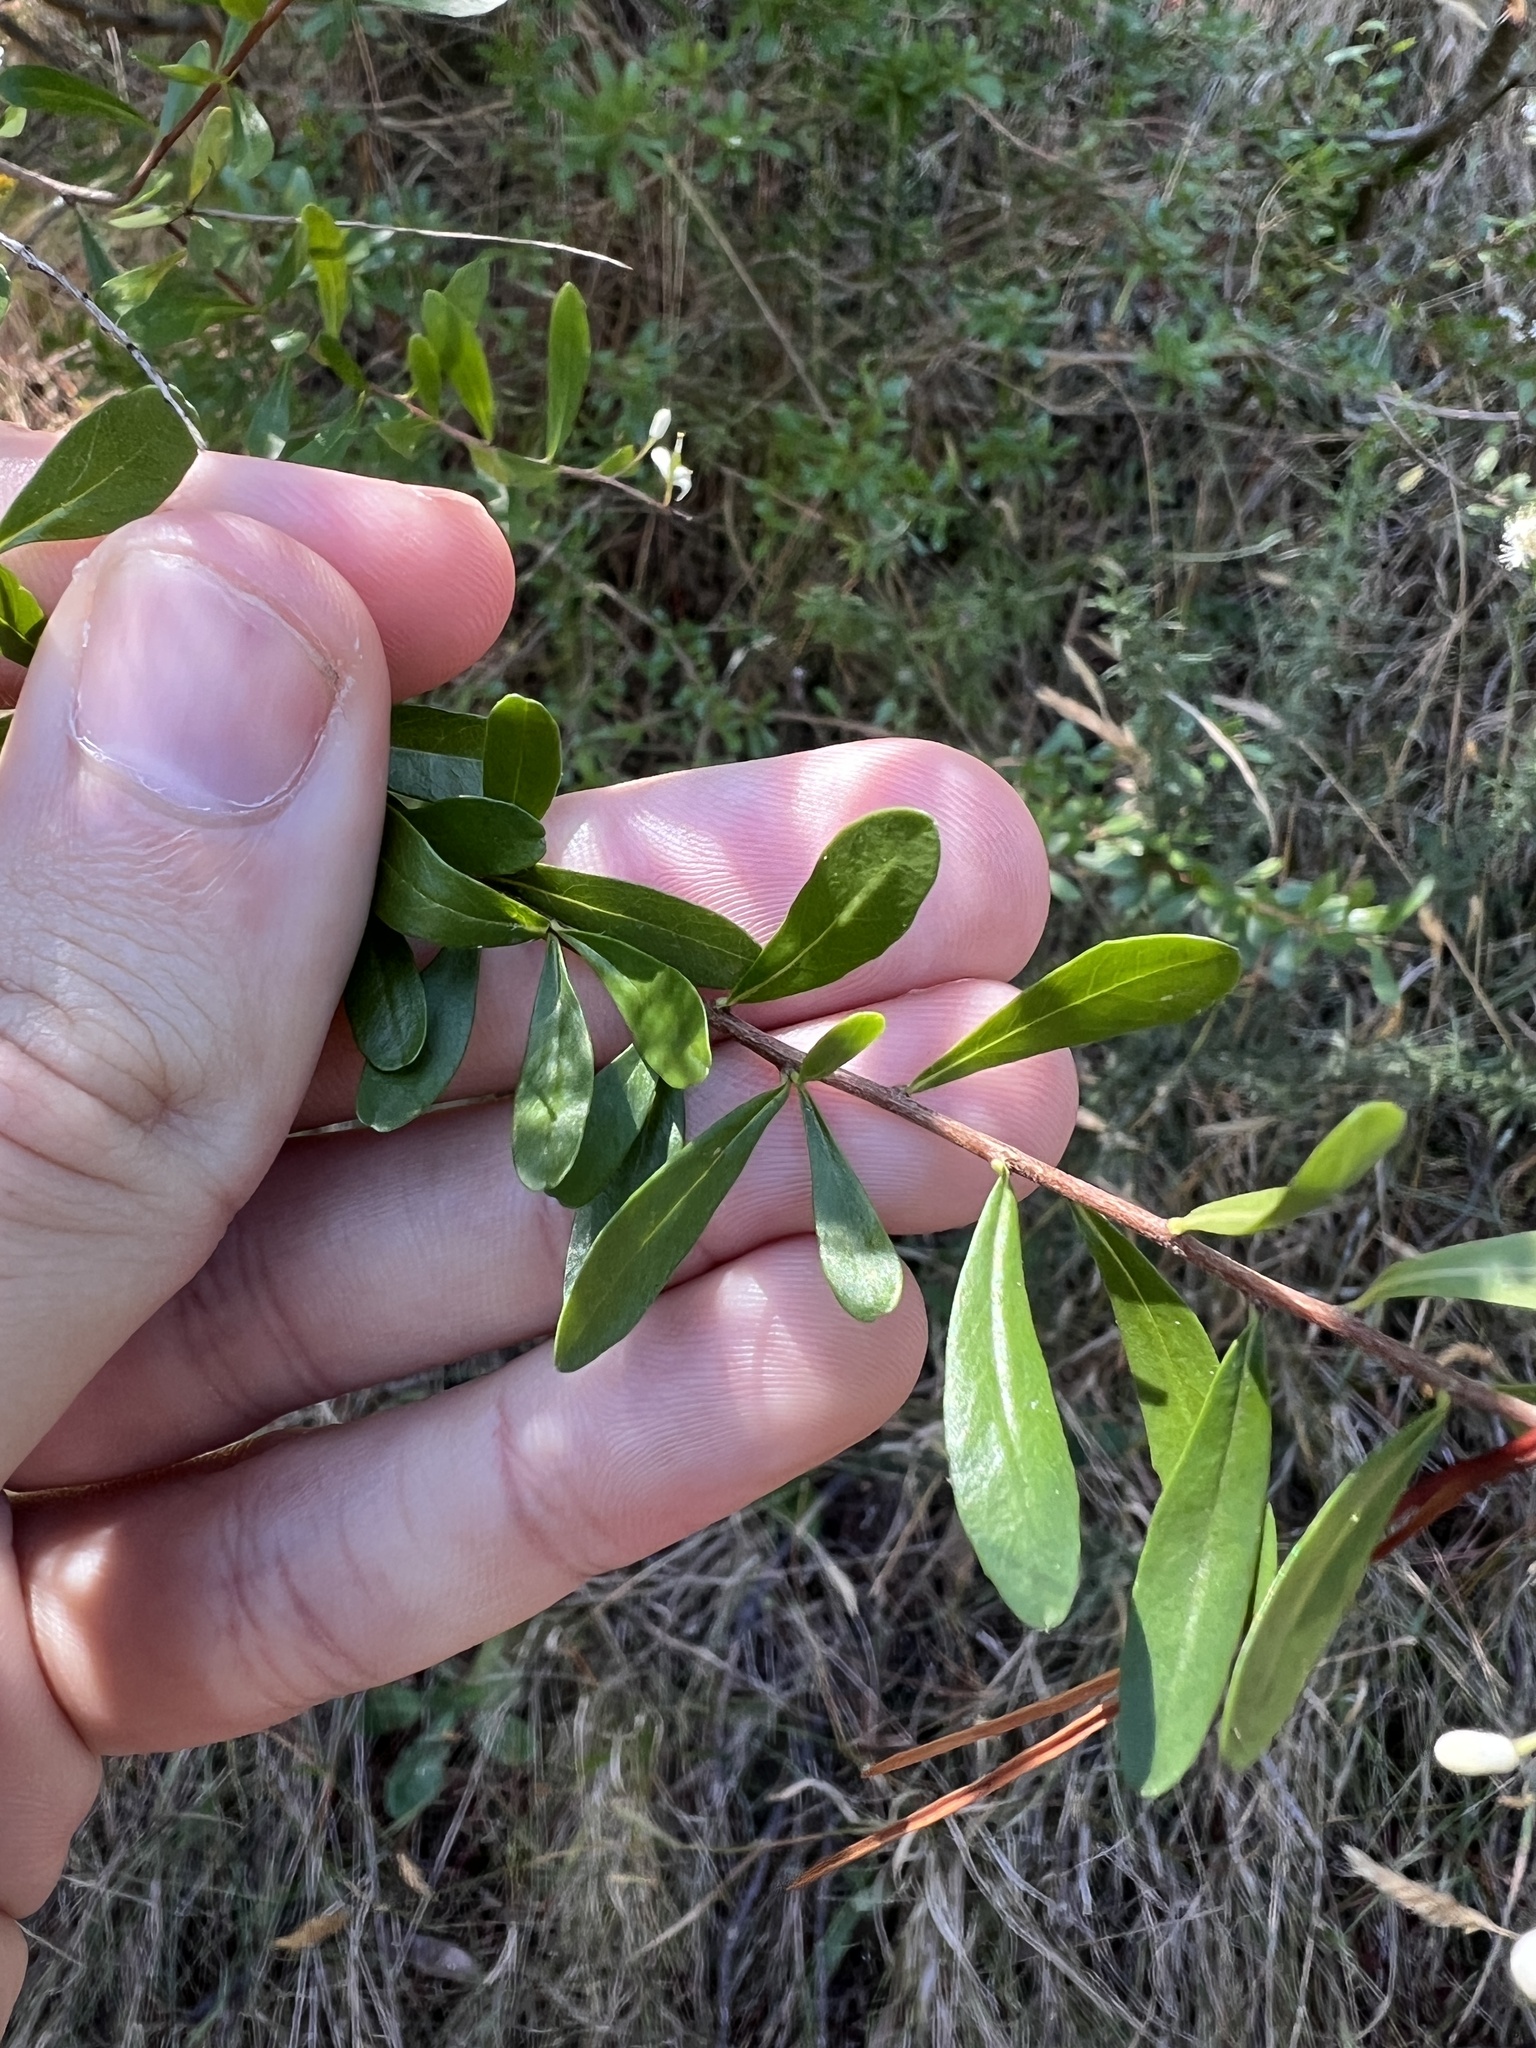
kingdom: Plantae
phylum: Tracheophyta
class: Magnoliopsida
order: Apiales
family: Pittosporaceae
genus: Bursaria
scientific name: Bursaria spinosa
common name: Australian blackthorn
